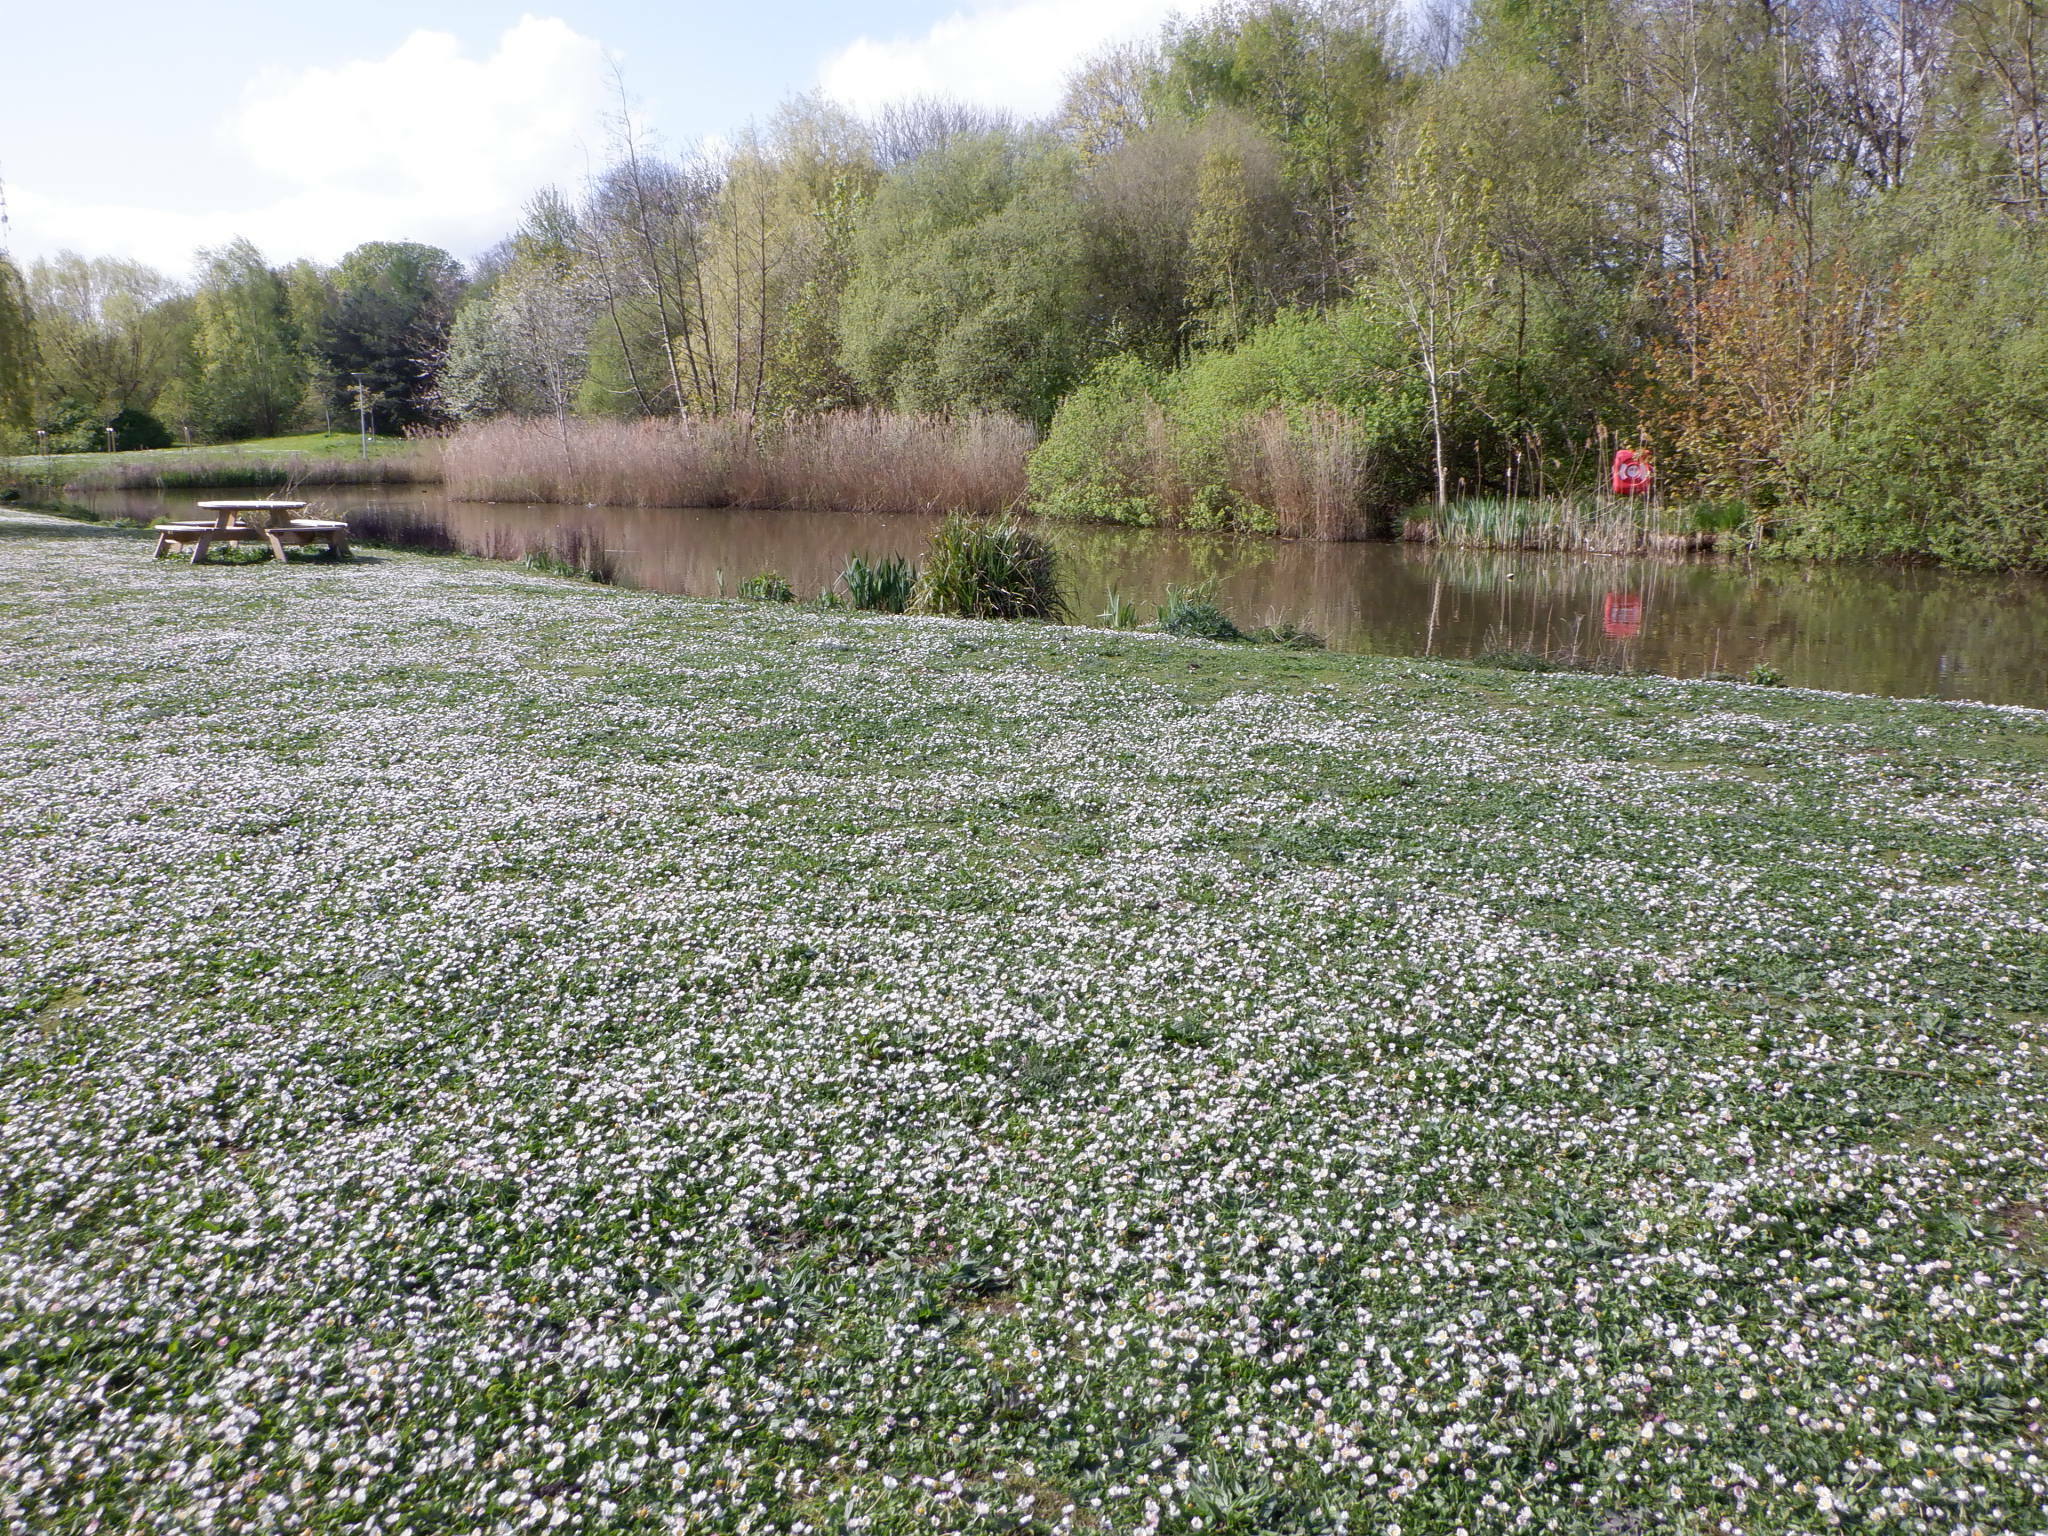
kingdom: Plantae
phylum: Tracheophyta
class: Magnoliopsida
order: Asterales
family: Asteraceae
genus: Bellis
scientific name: Bellis perennis
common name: Lawndaisy
